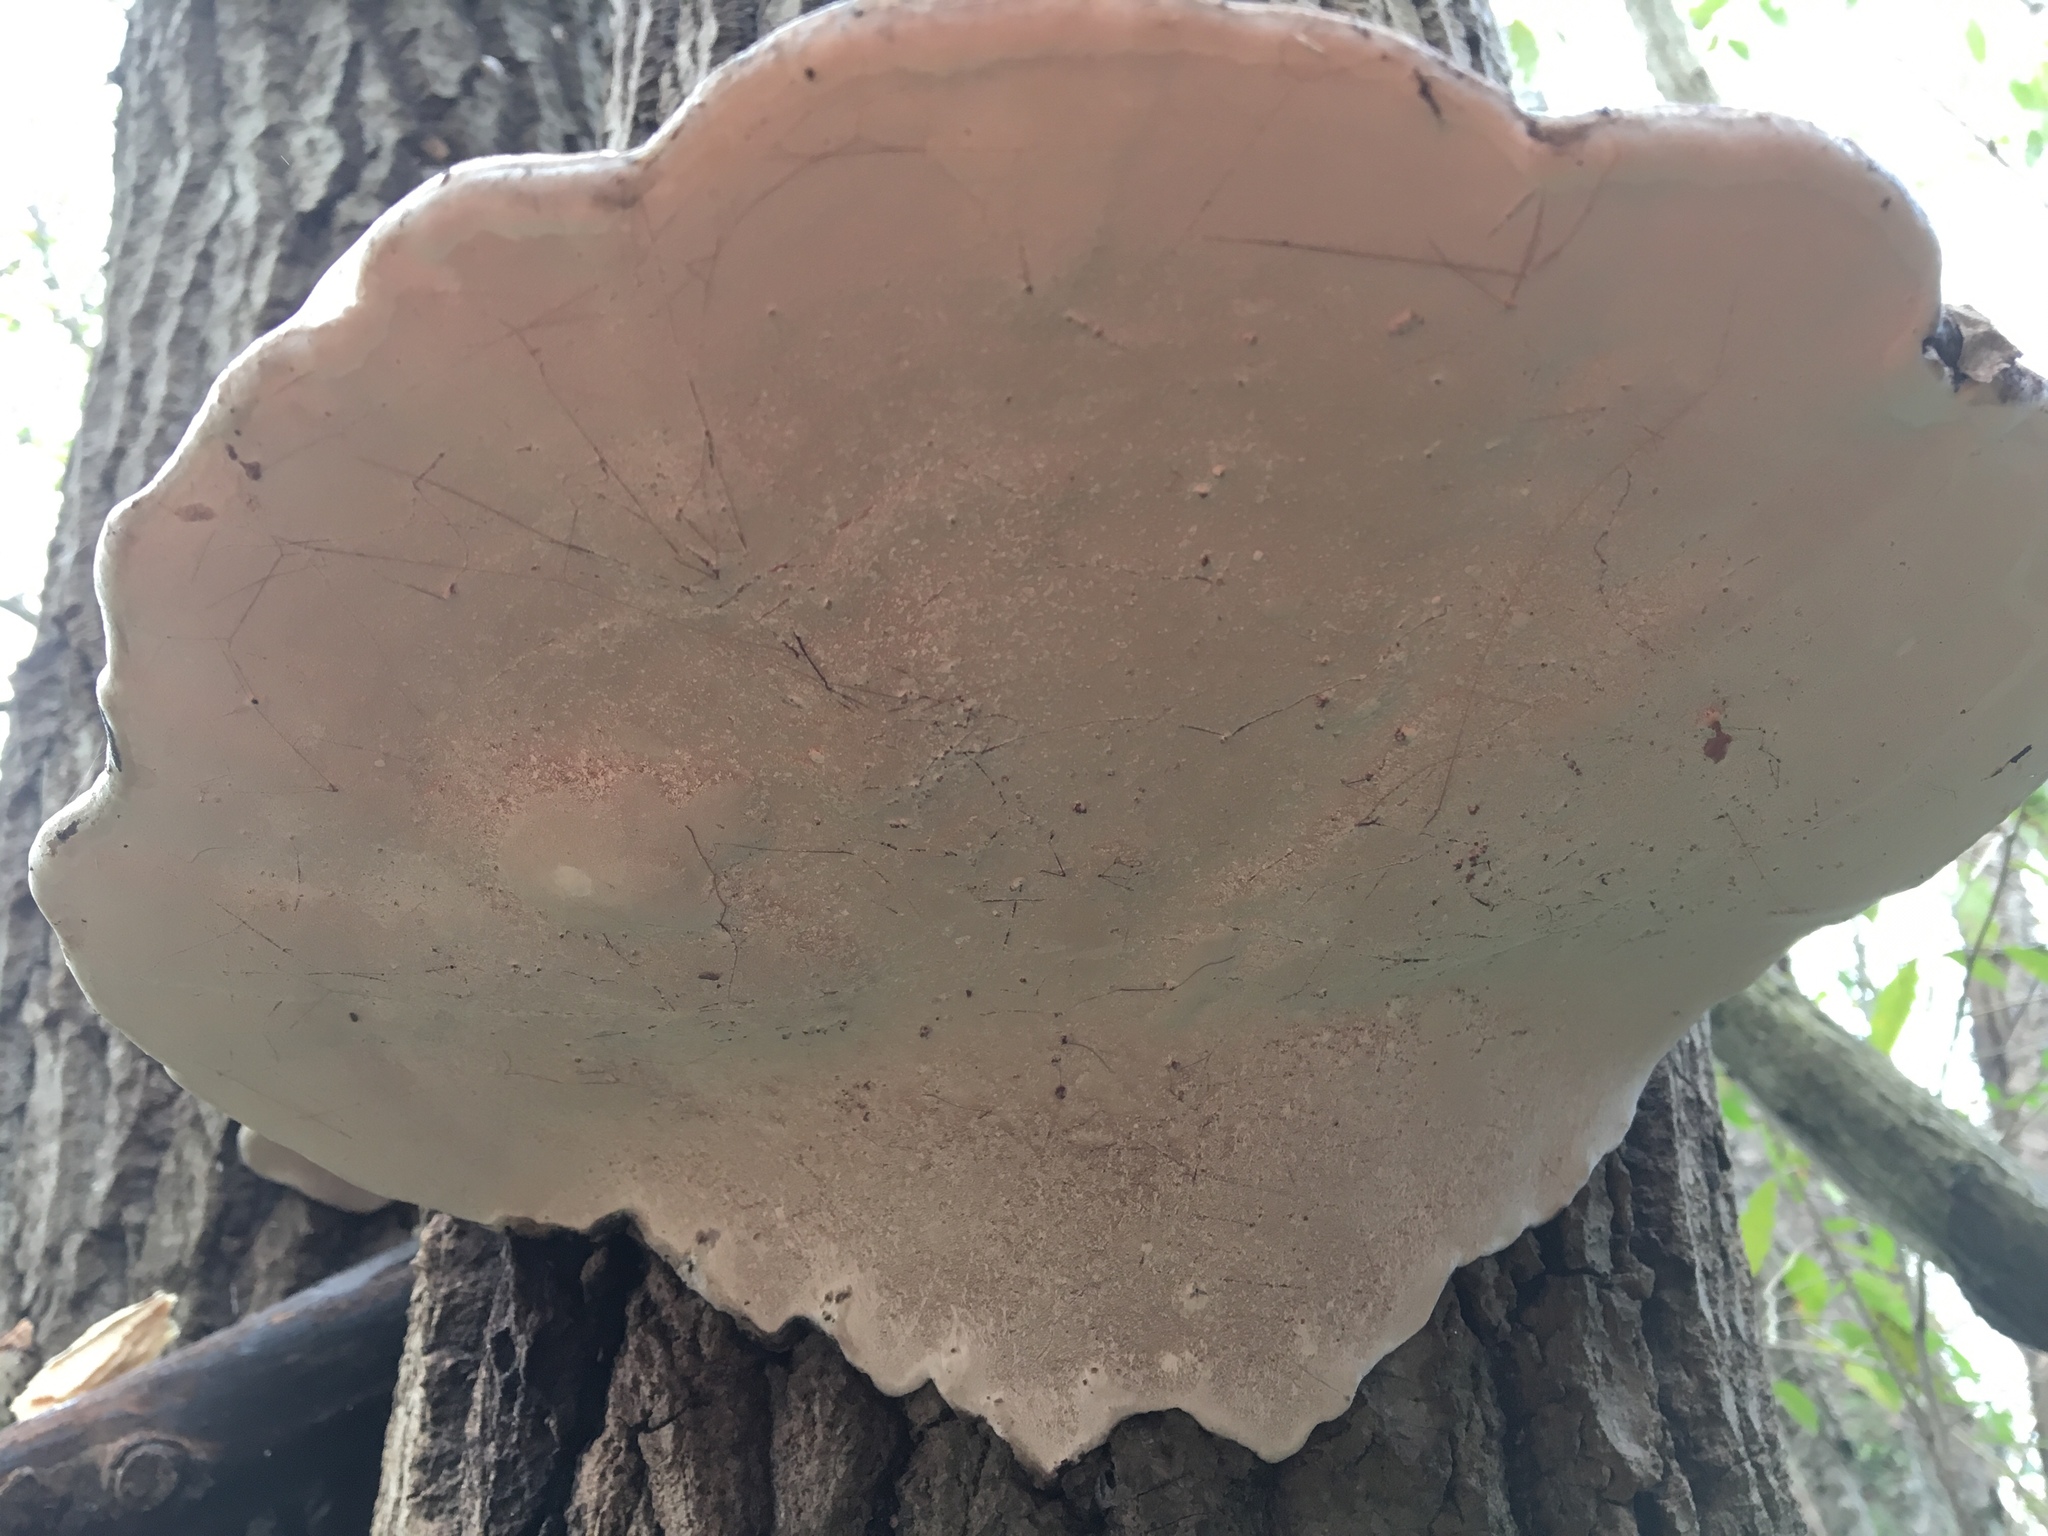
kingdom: Fungi
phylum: Basidiomycota
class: Agaricomycetes
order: Polyporales
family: Polyporaceae
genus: Ganoderma
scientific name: Ganoderma applanatum
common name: Artist's bracket
